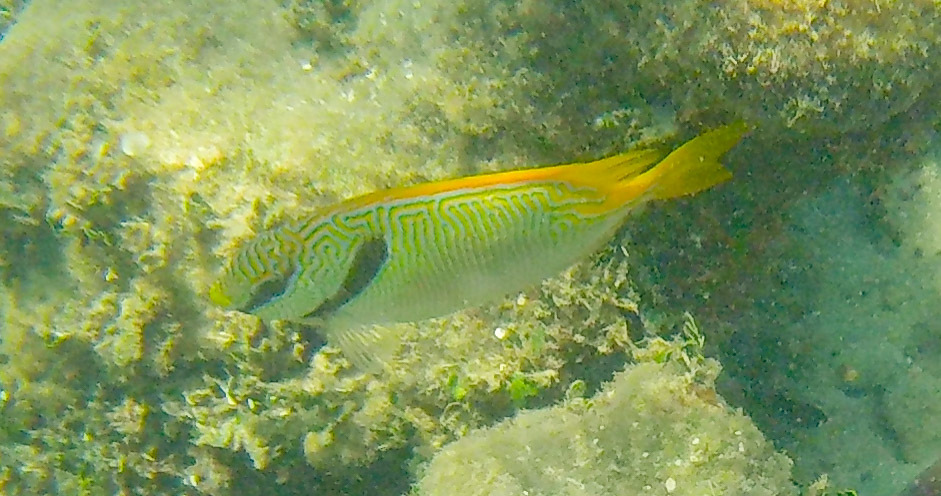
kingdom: Animalia
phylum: Chordata
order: Perciformes
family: Siganidae
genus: Siganus
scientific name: Siganus doliatus
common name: Barred spinefoot
